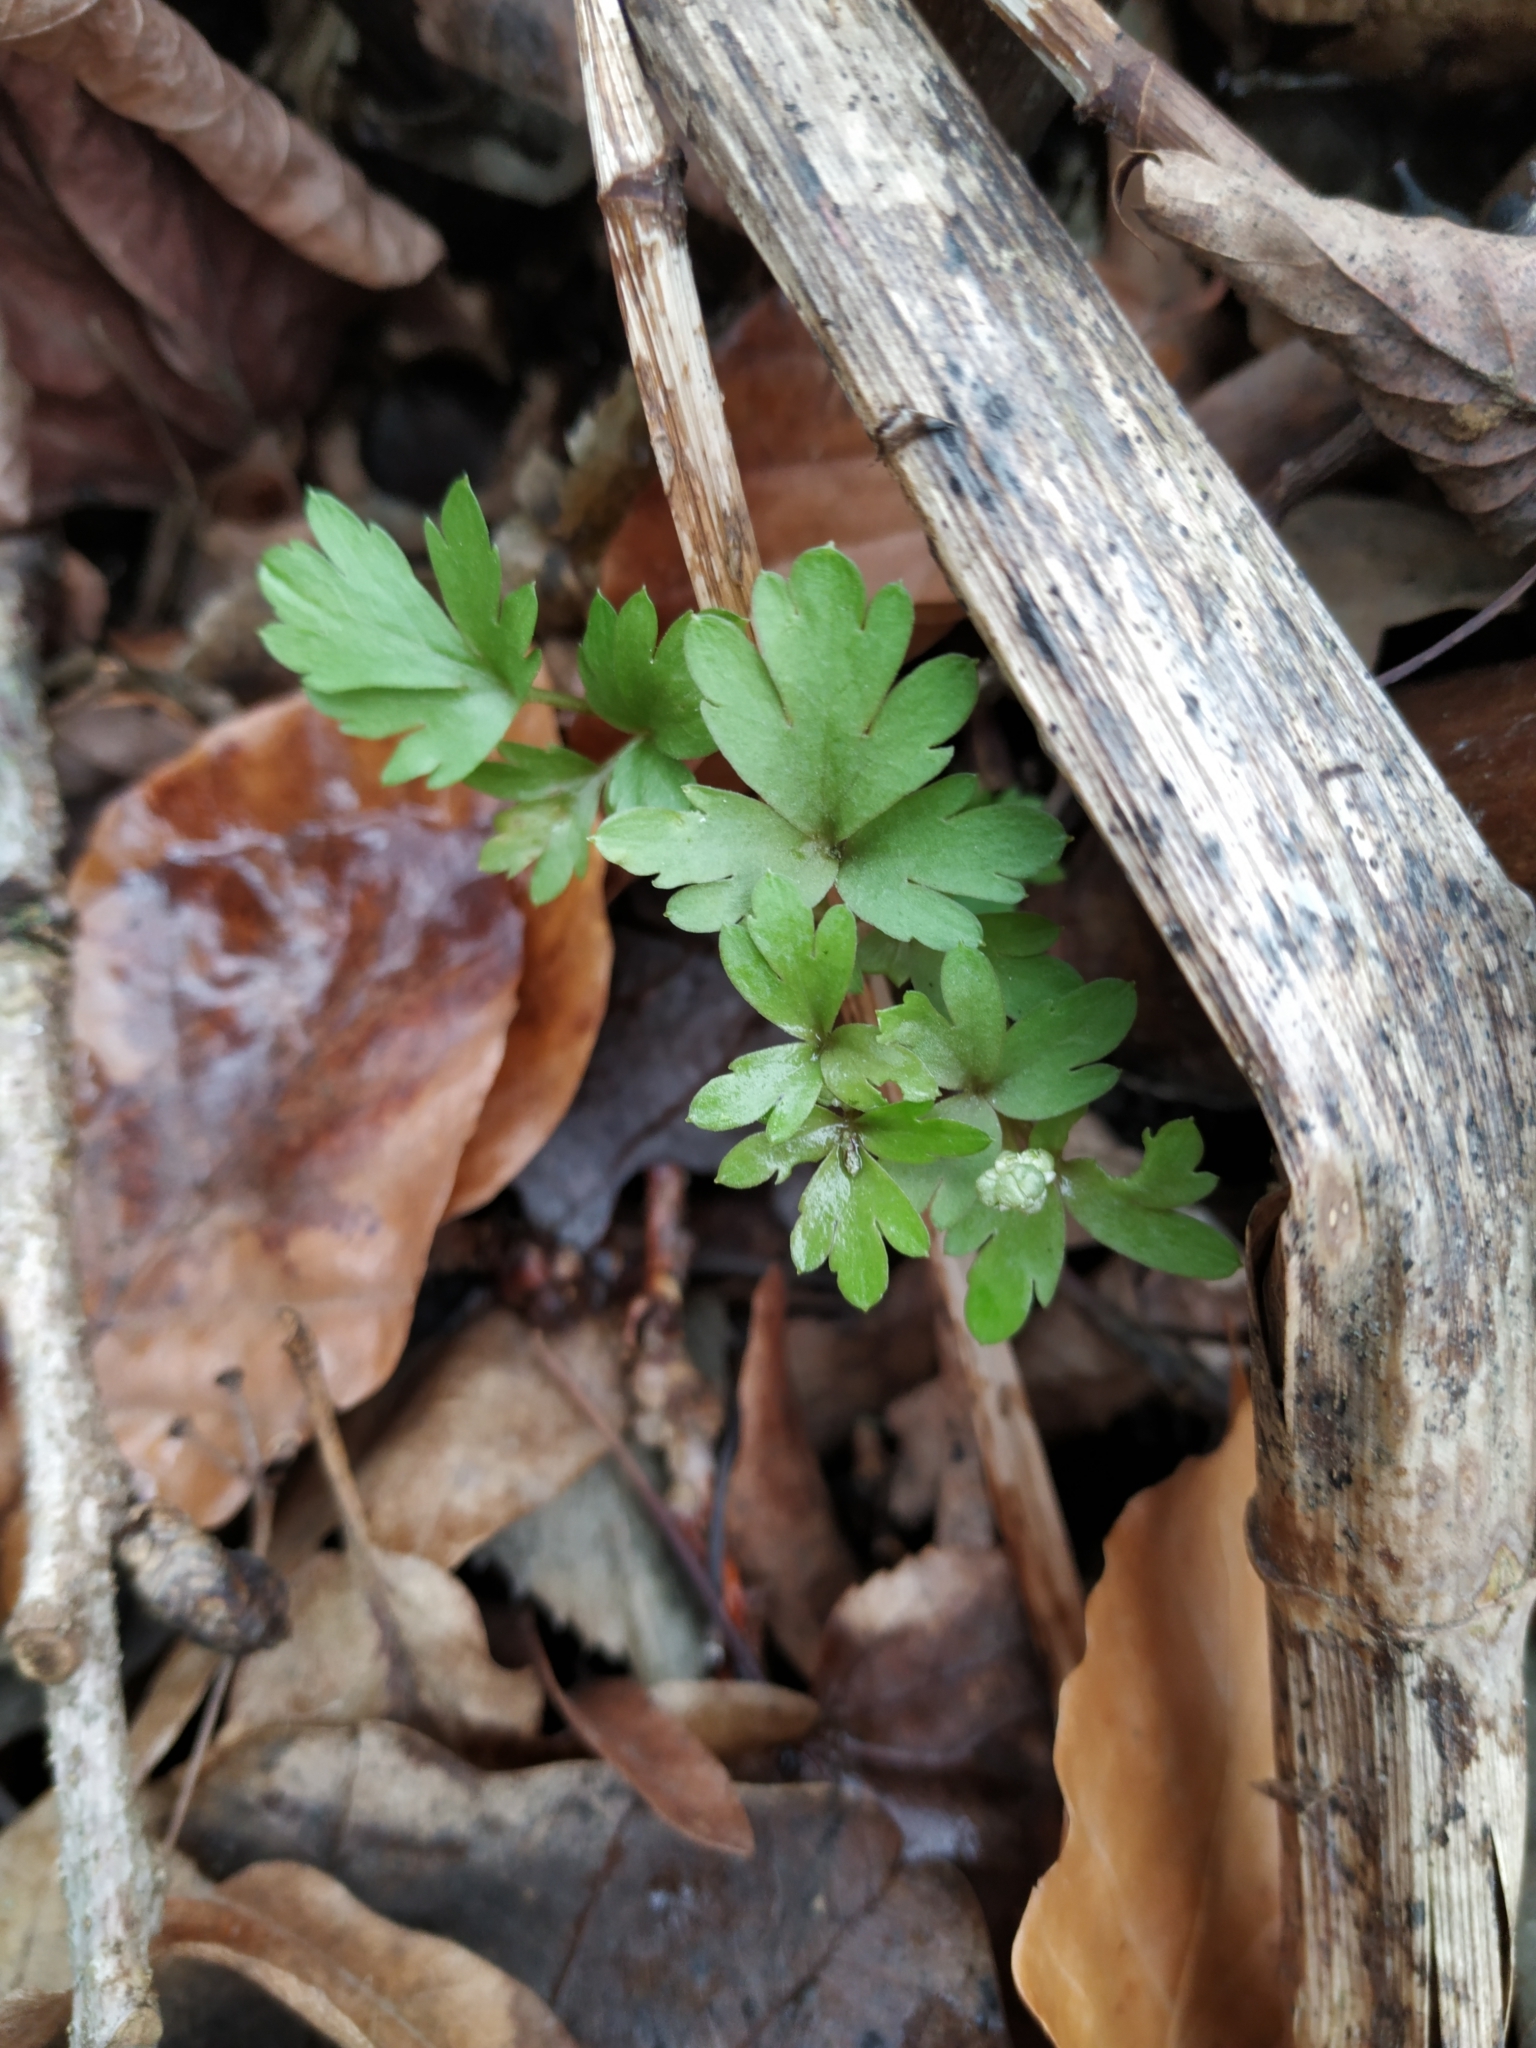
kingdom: Plantae
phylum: Tracheophyta
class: Magnoliopsida
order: Dipsacales
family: Viburnaceae
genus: Adoxa
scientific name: Adoxa moschatellina
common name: Moschatel
